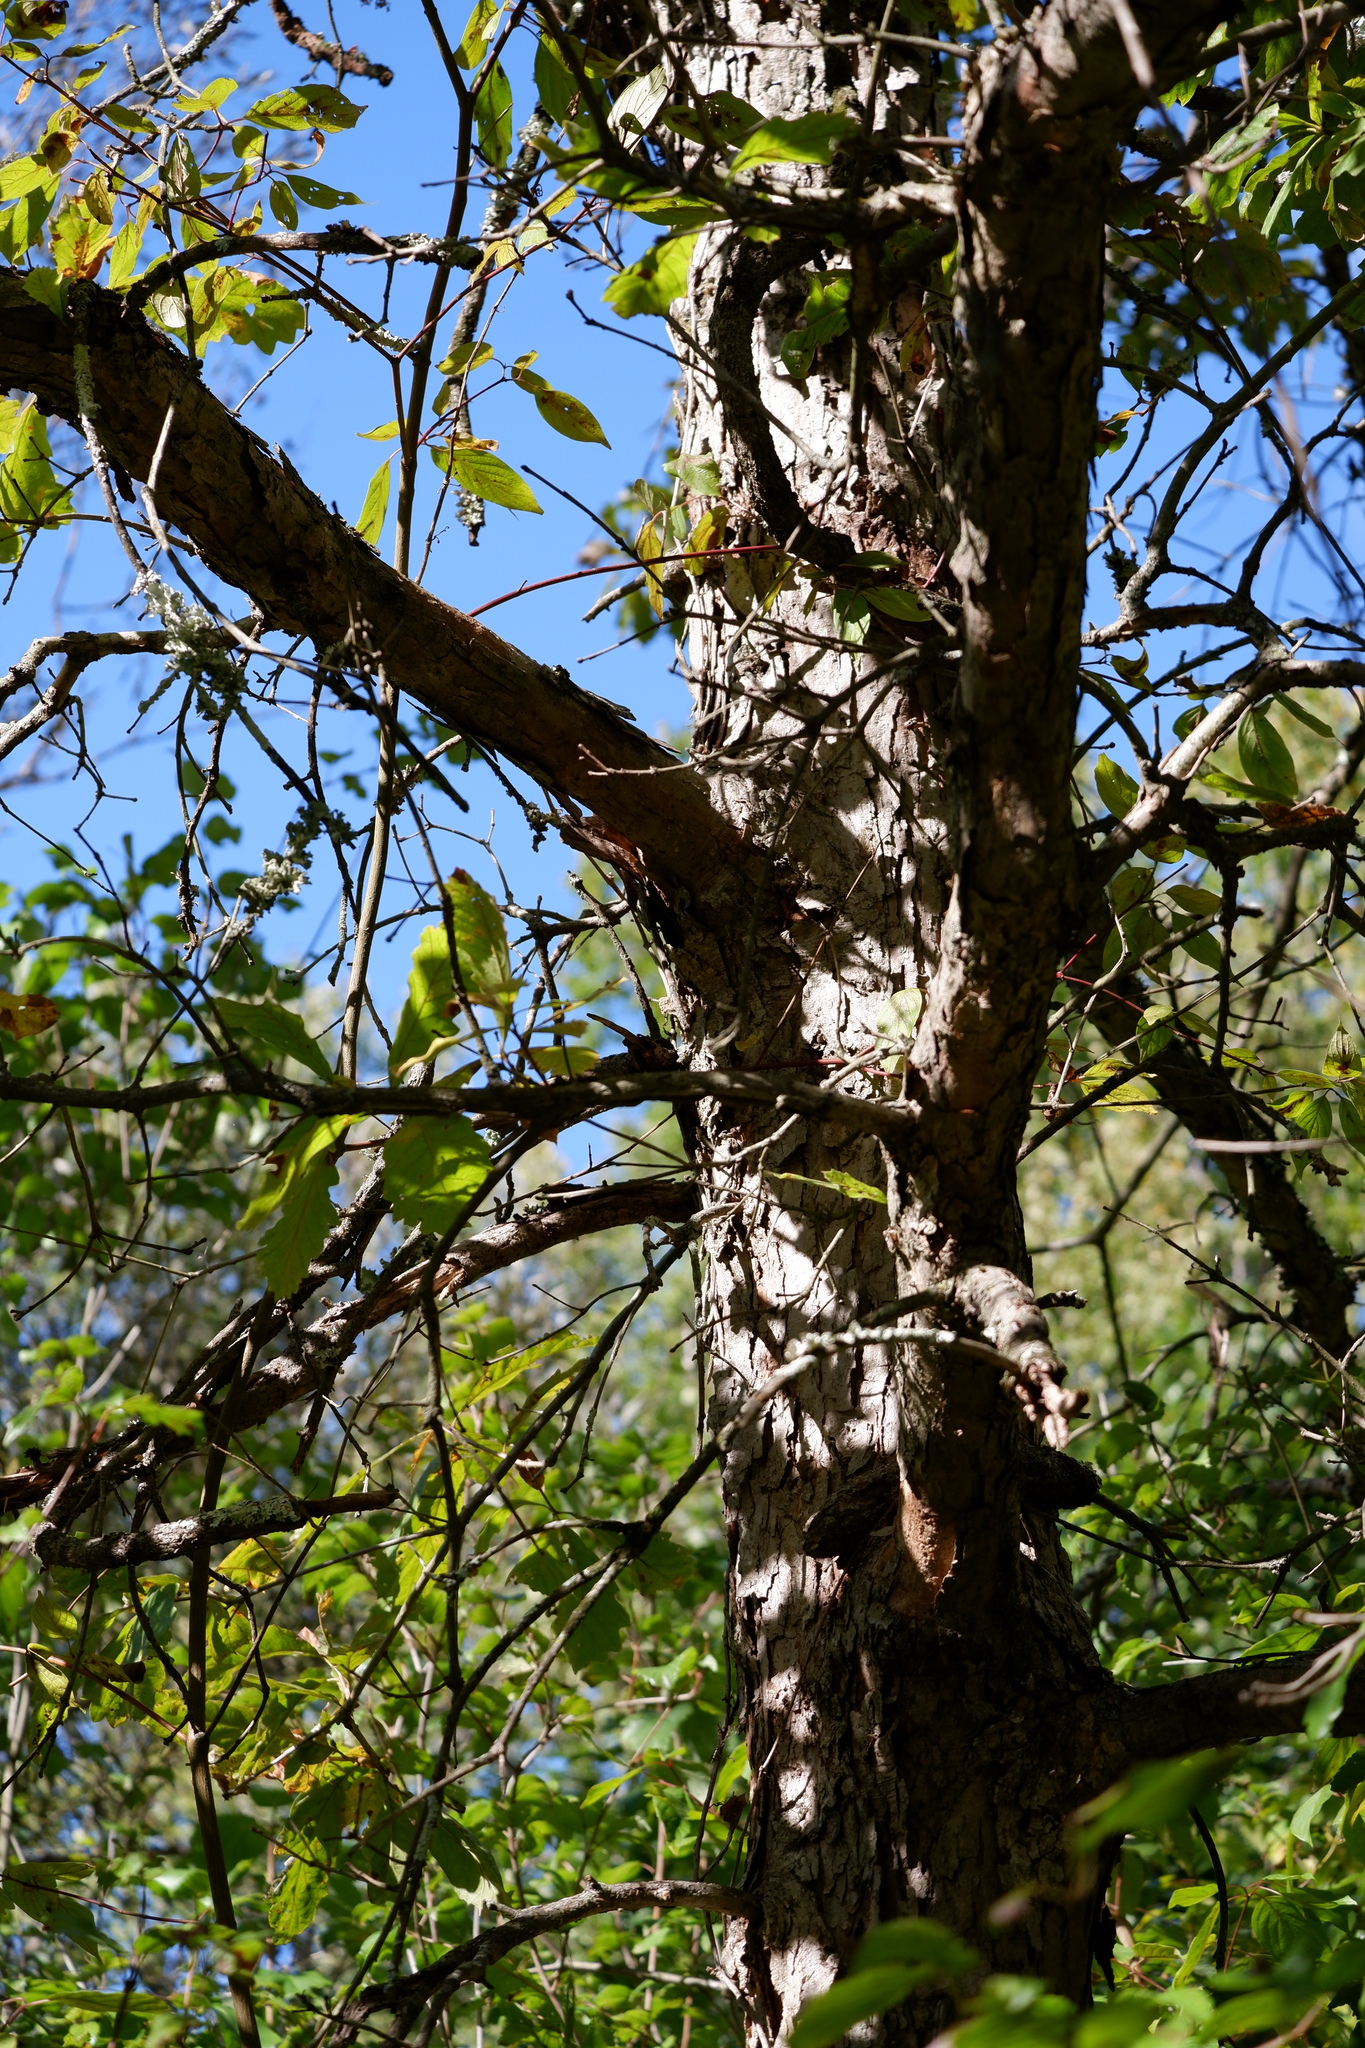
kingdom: Plantae
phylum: Tracheophyta
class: Magnoliopsida
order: Fagales
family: Fagaceae
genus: Quercus
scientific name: Quercus bicolor
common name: Swamp white oak
